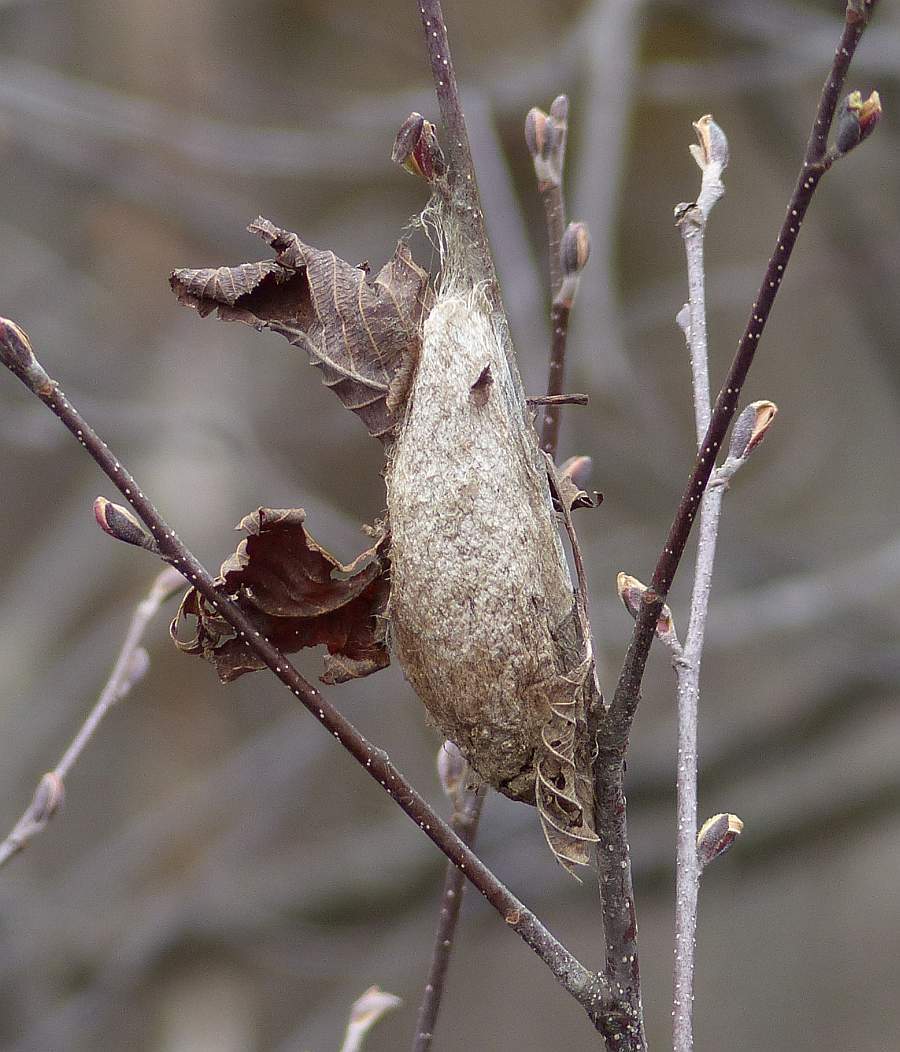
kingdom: Animalia
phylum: Arthropoda
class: Insecta
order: Lepidoptera
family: Saturniidae
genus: Hyalophora
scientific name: Hyalophora cecropia
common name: Cecropia silkmoth
